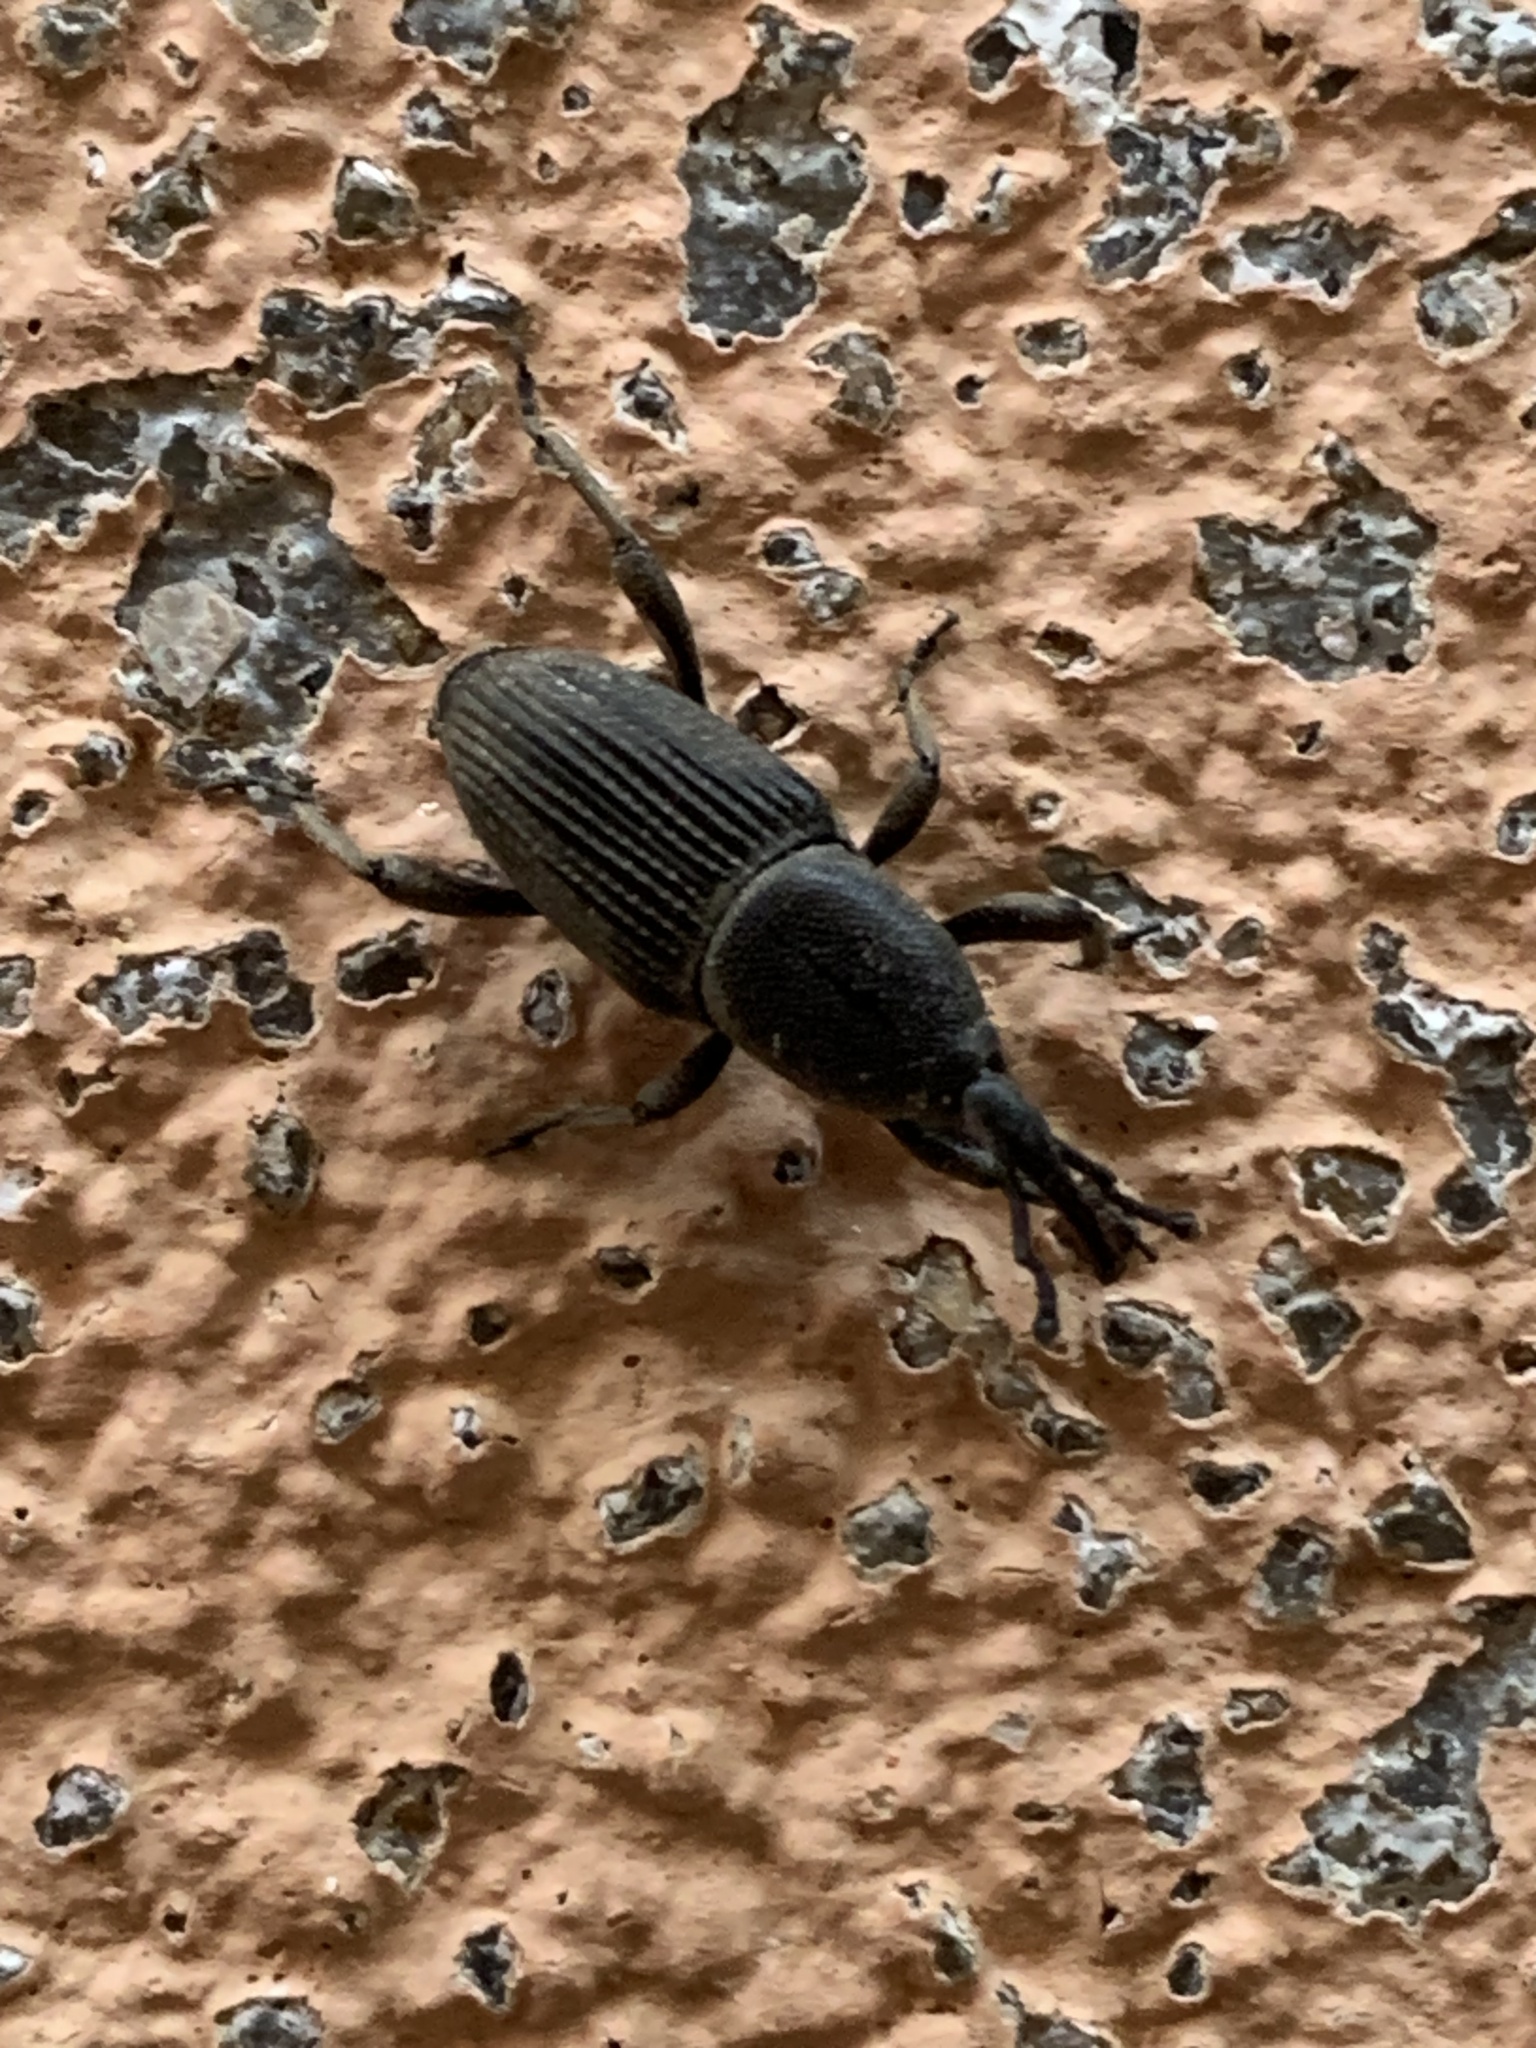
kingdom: Animalia
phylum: Arthropoda
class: Insecta
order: Coleoptera
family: Dryophthoridae
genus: Cosmopolites
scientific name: Cosmopolites sordidus
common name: Palm weevil
